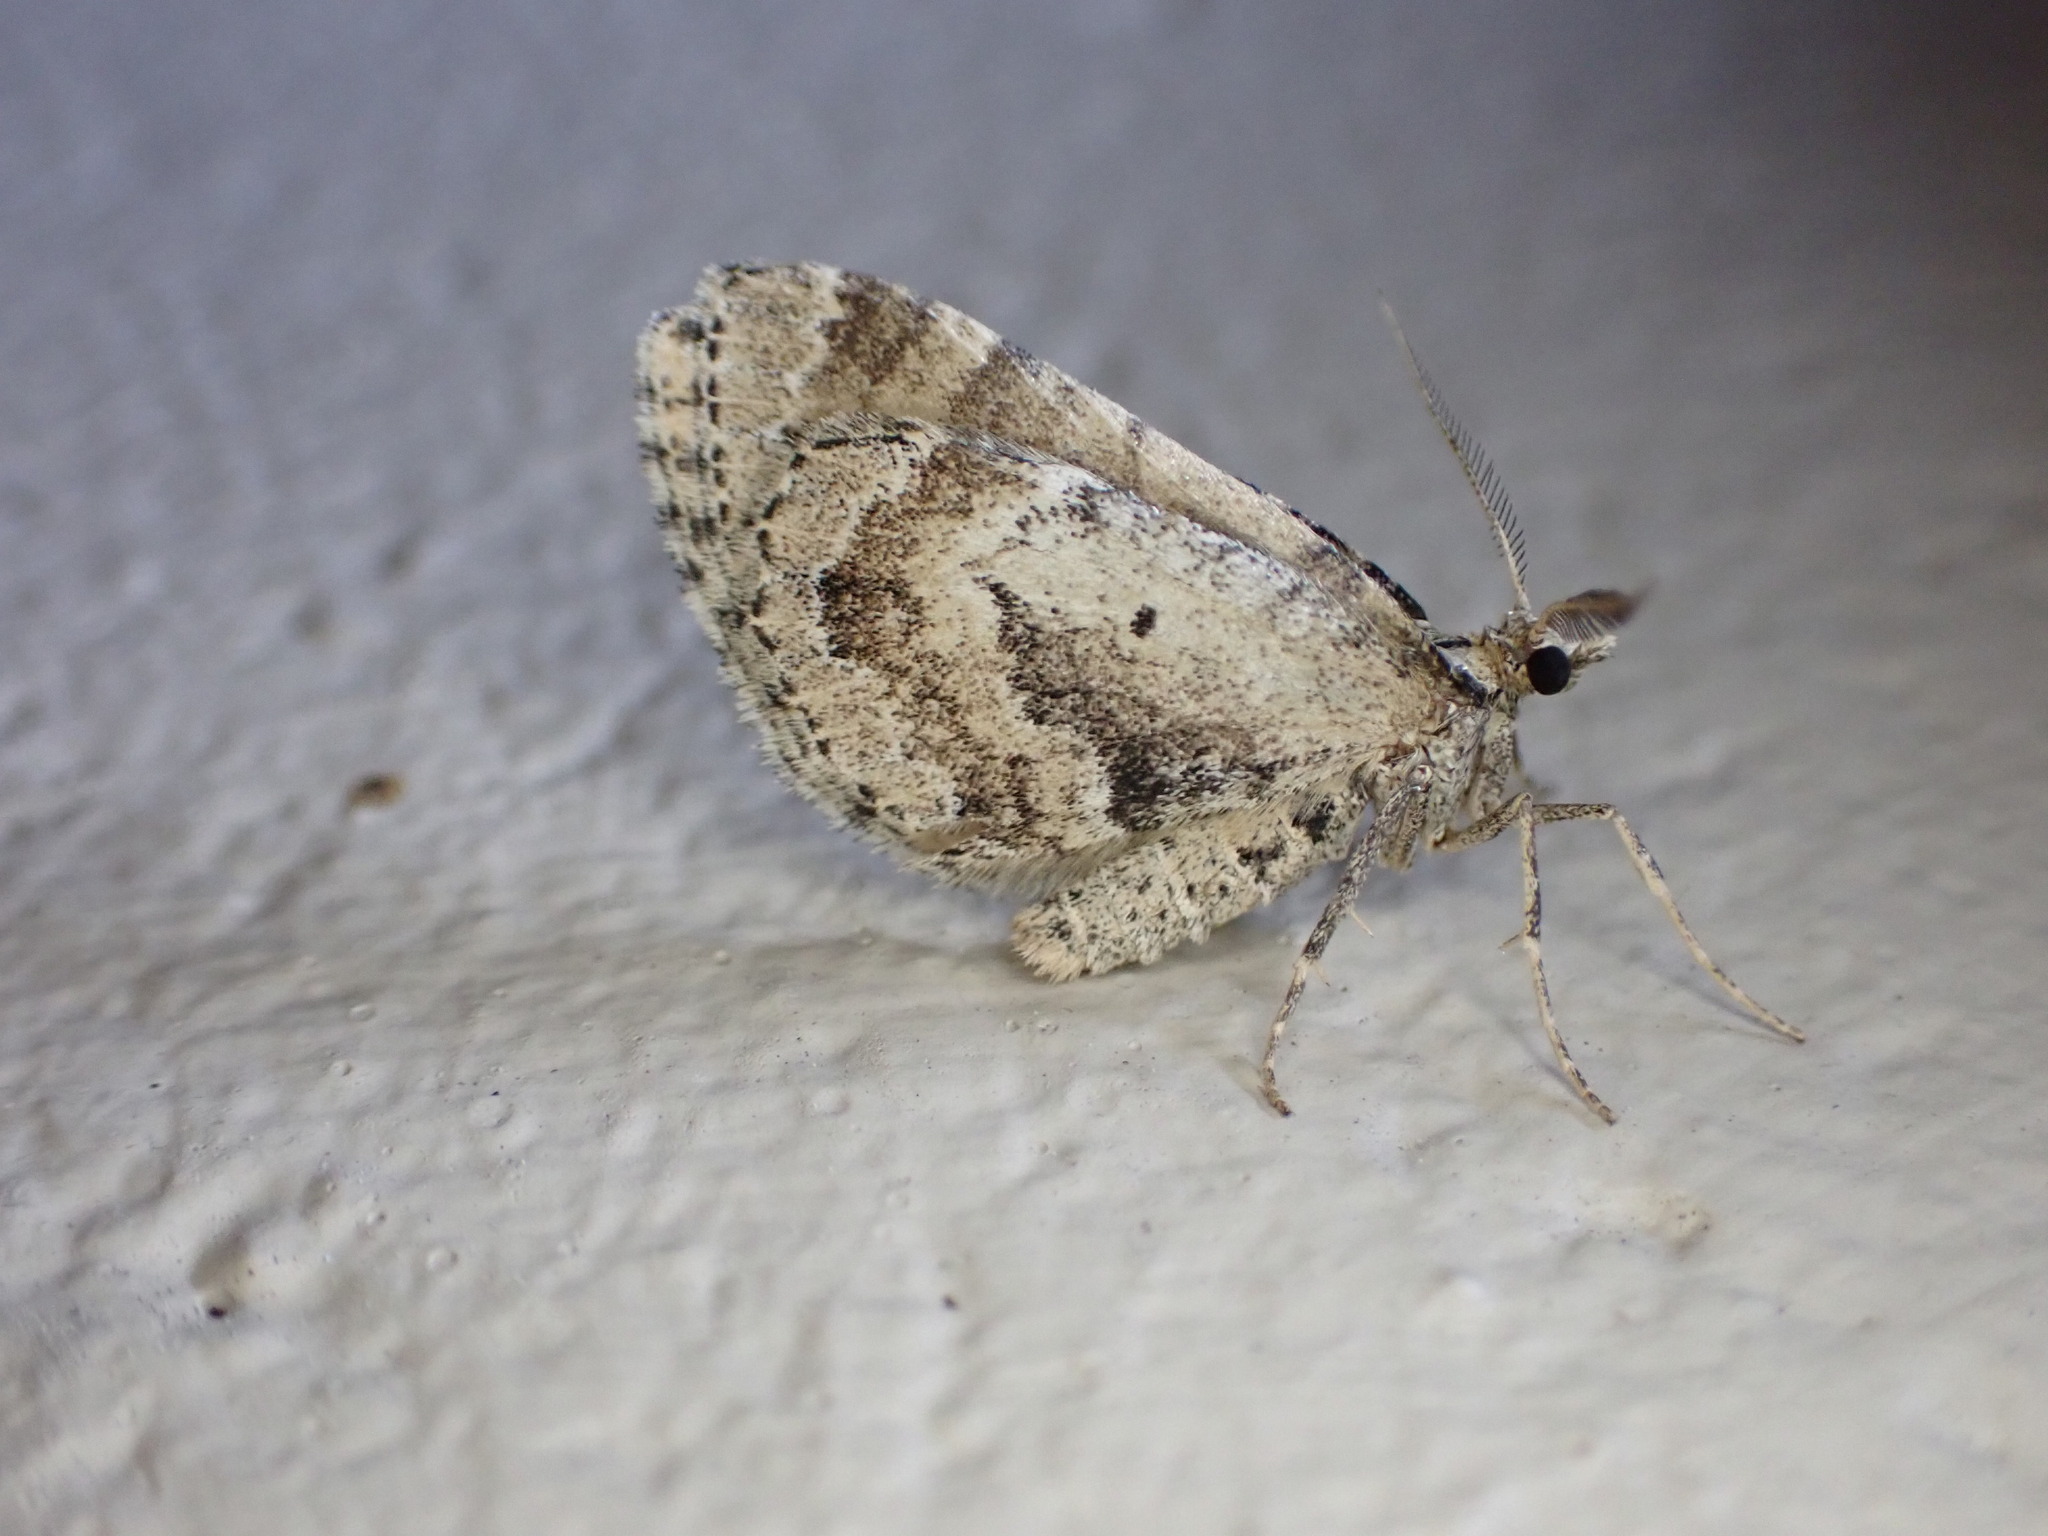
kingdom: Animalia
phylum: Arthropoda
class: Insecta
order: Lepidoptera
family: Geometridae
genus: Asaphodes
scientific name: Asaphodes aegrota
